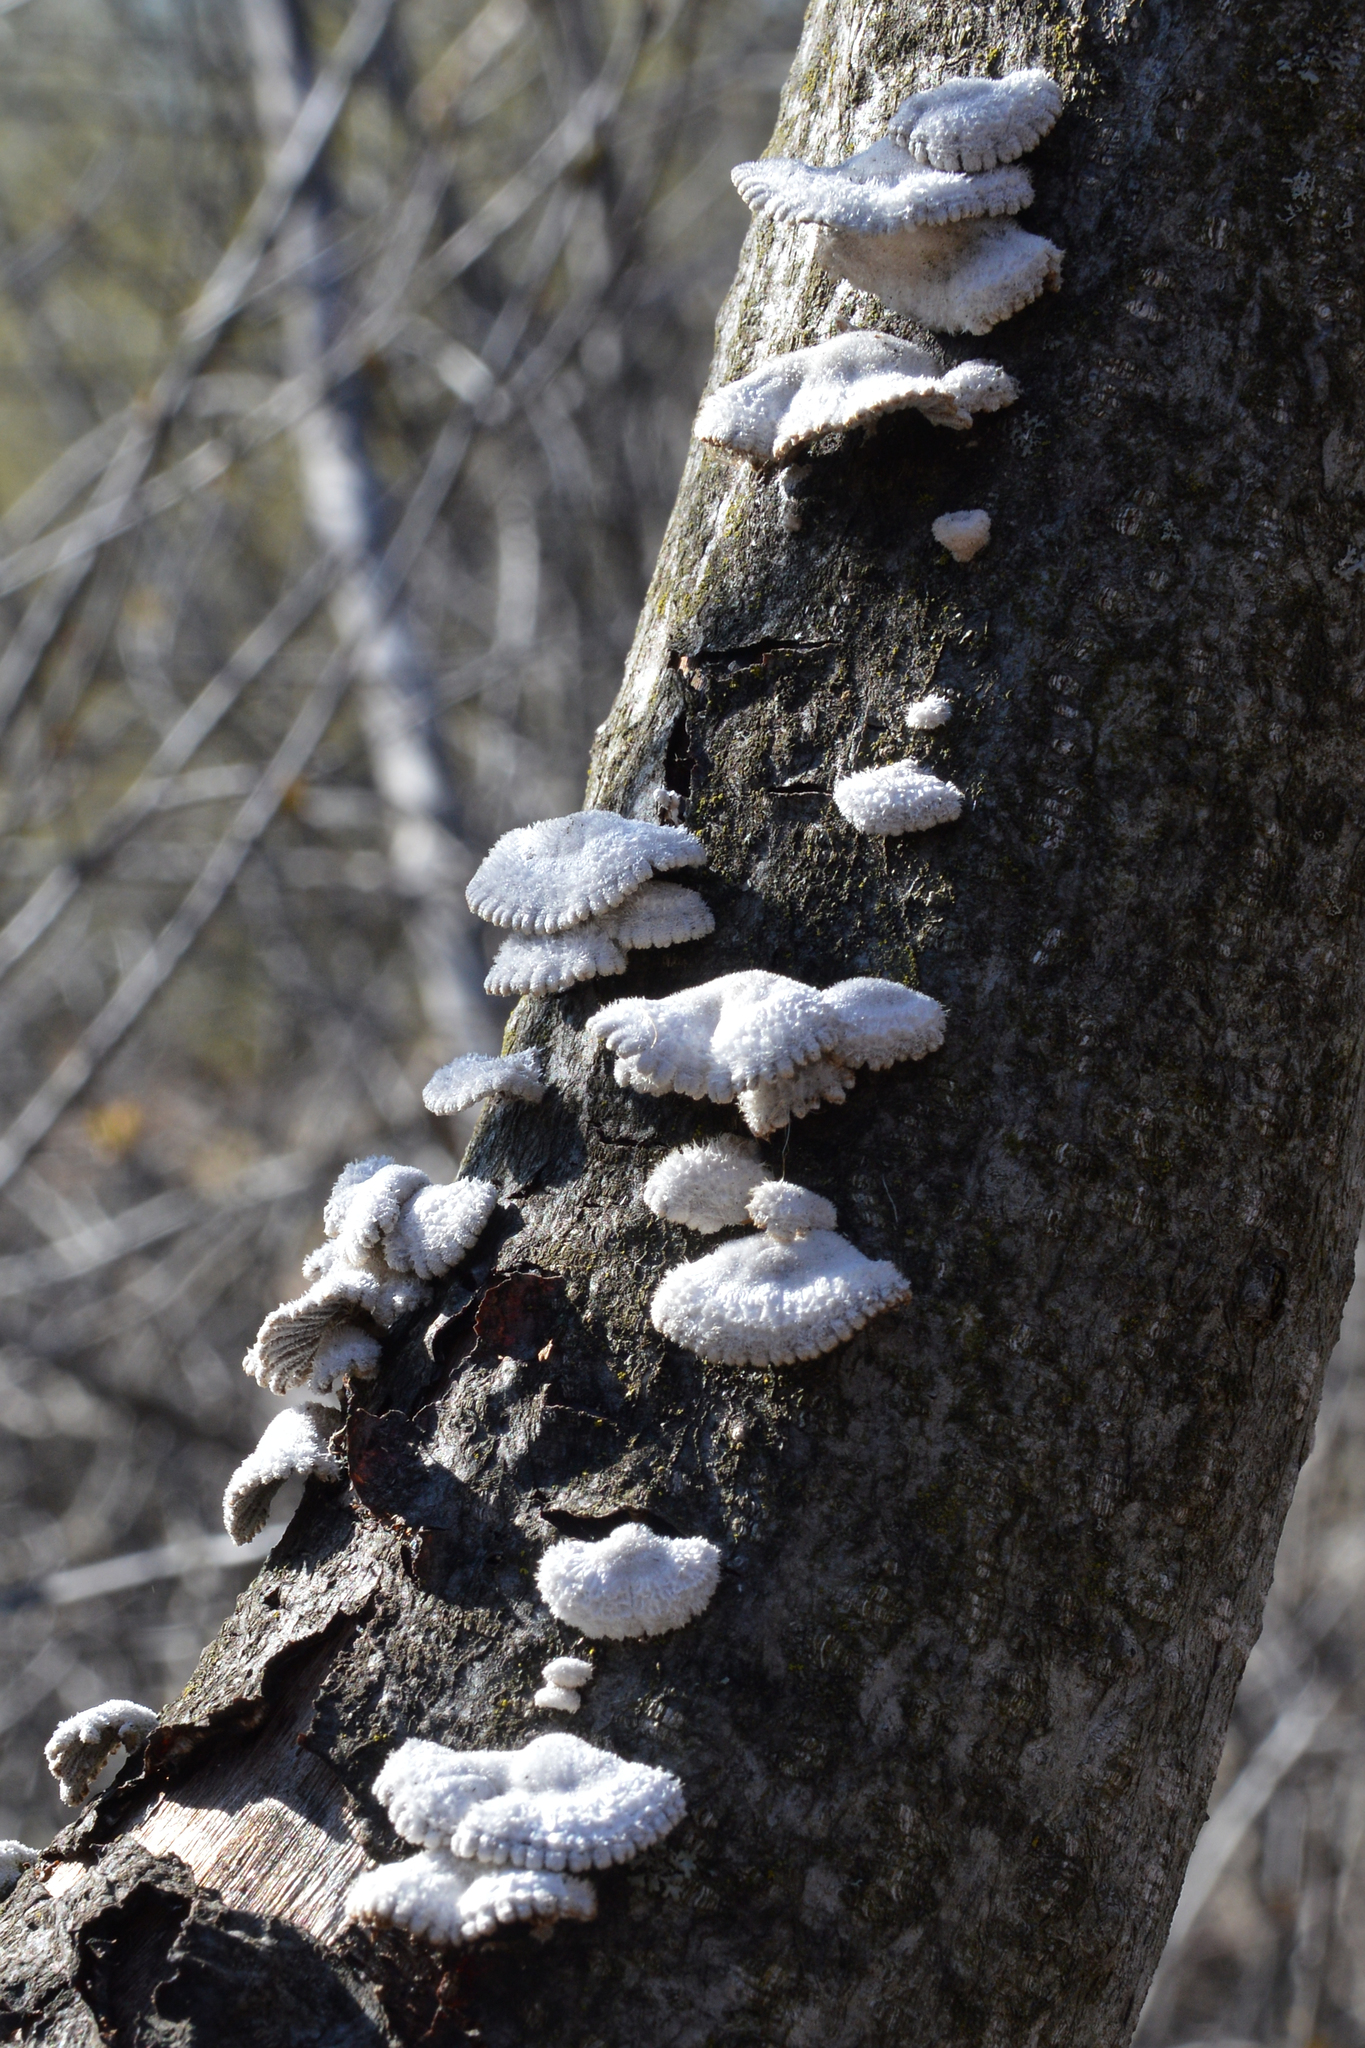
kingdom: Fungi
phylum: Basidiomycota
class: Agaricomycetes
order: Agaricales
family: Schizophyllaceae
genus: Schizophyllum
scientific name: Schizophyllum commune
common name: Common porecrust
